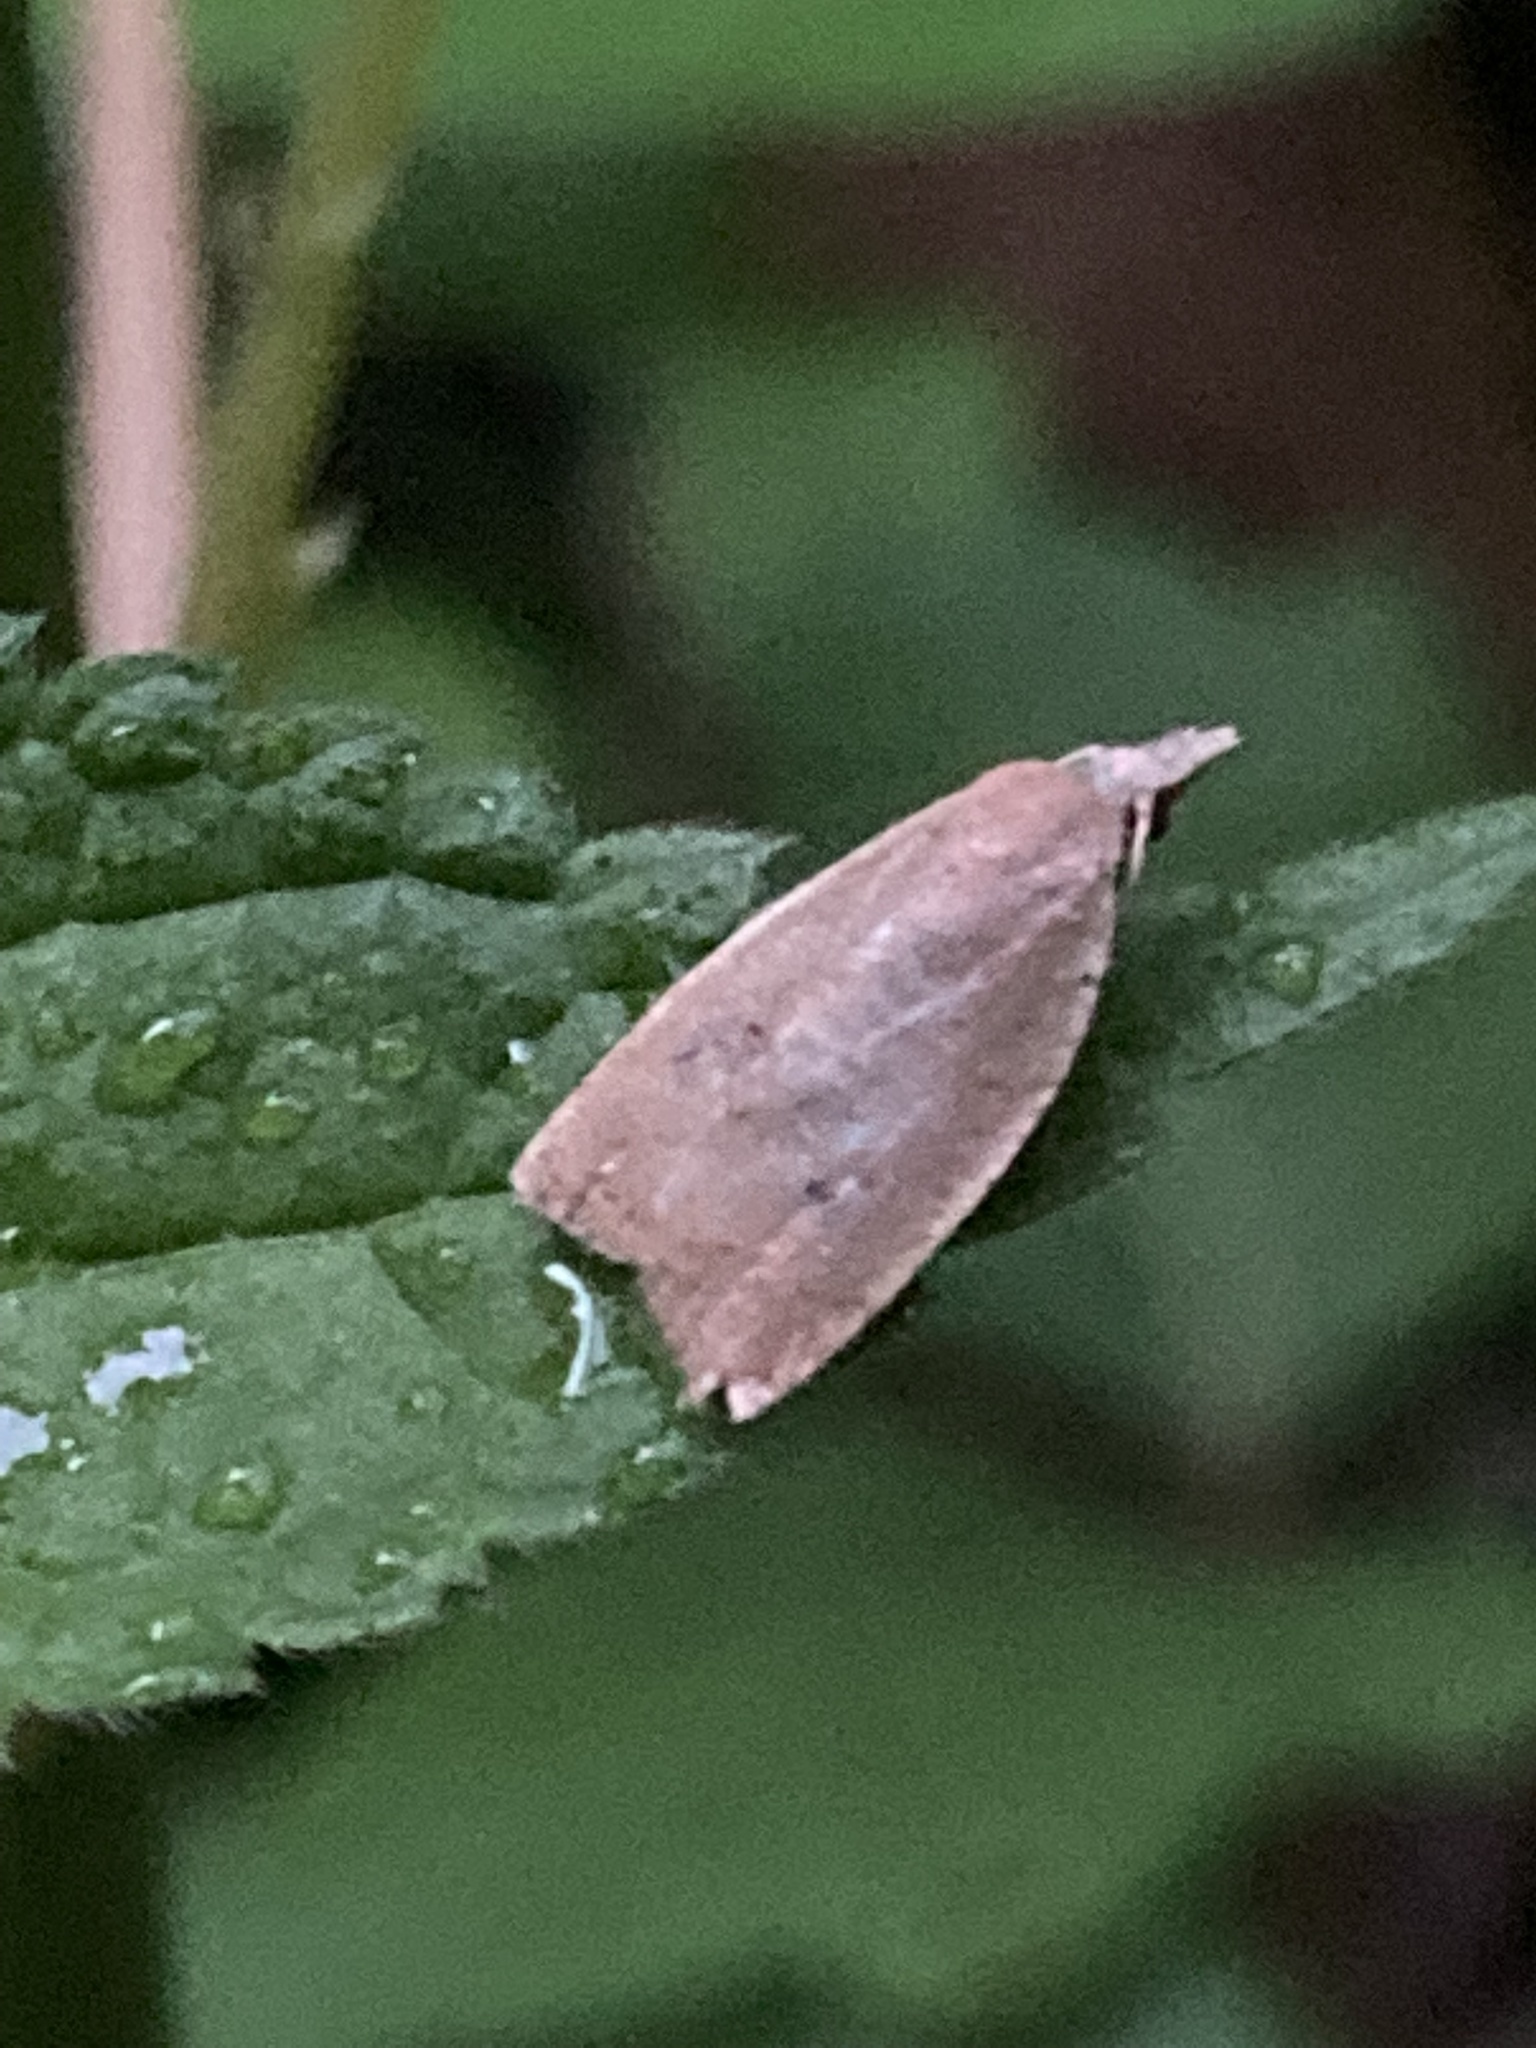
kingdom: Animalia
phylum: Arthropoda
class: Insecta
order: Lepidoptera
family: Tortricidae
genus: Sparganothoides
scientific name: Sparganothoides lentiginosana
